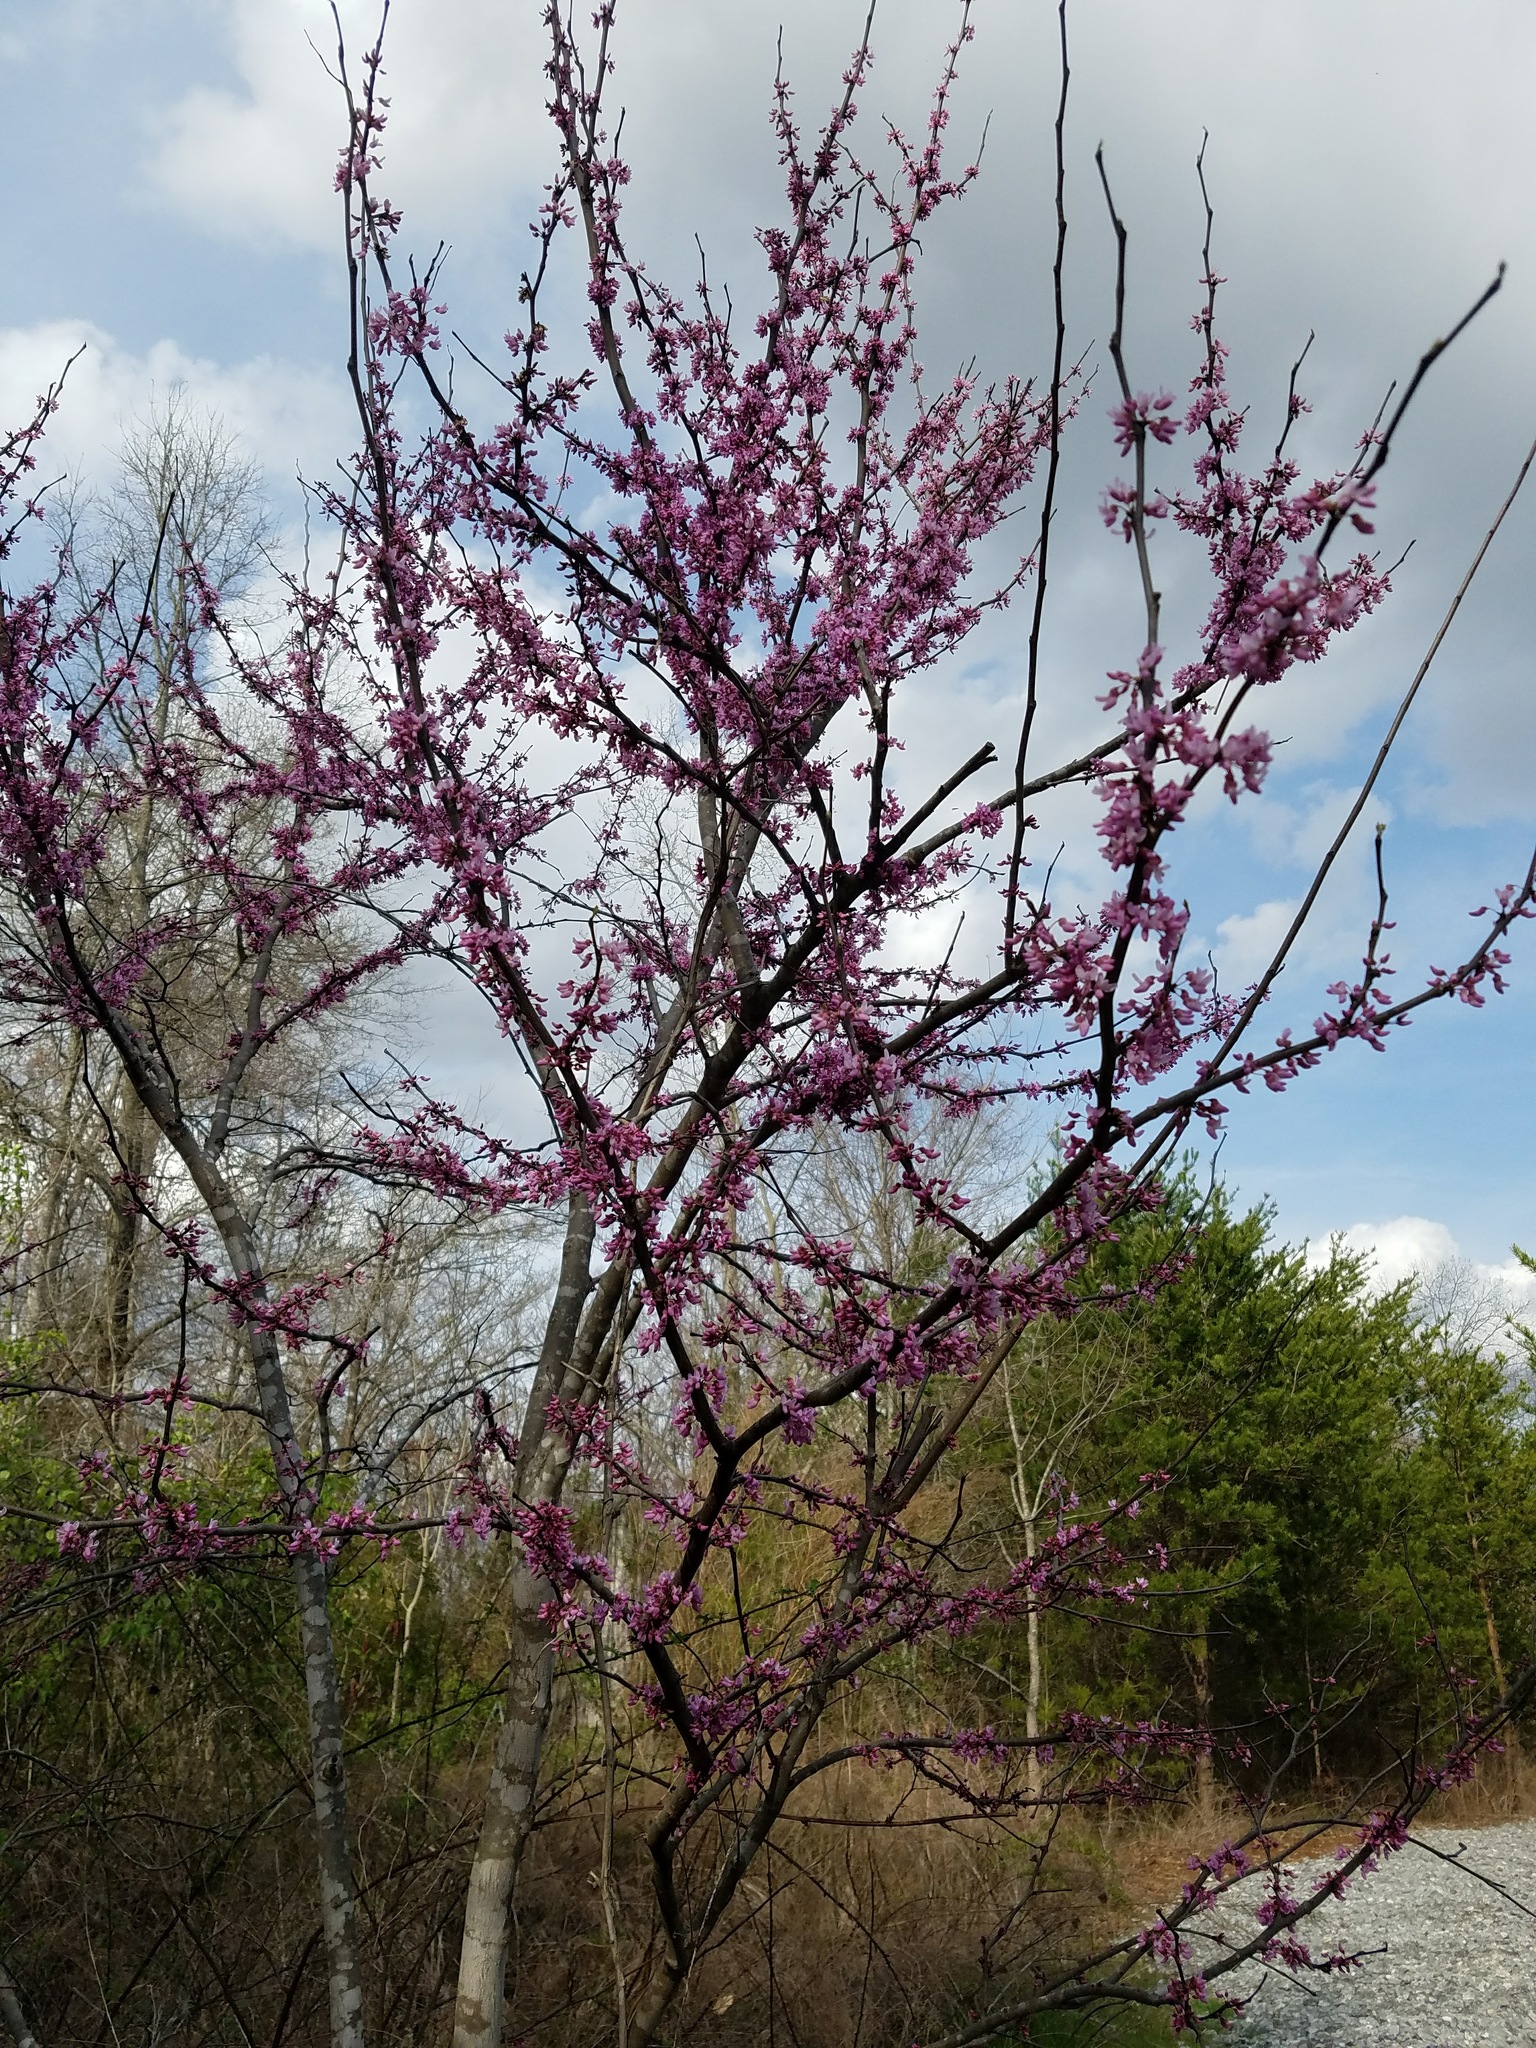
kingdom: Plantae
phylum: Tracheophyta
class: Magnoliopsida
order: Fabales
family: Fabaceae
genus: Cercis
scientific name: Cercis canadensis
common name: Eastern redbud
